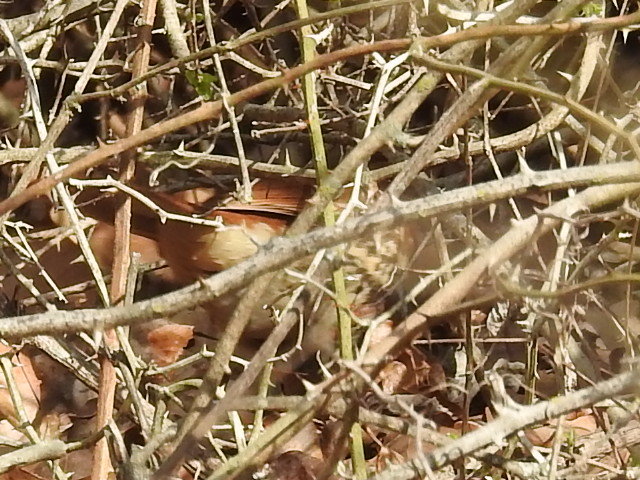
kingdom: Animalia
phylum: Chordata
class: Aves
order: Passeriformes
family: Mimidae
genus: Toxostoma
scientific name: Toxostoma rufum
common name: Brown thrasher
